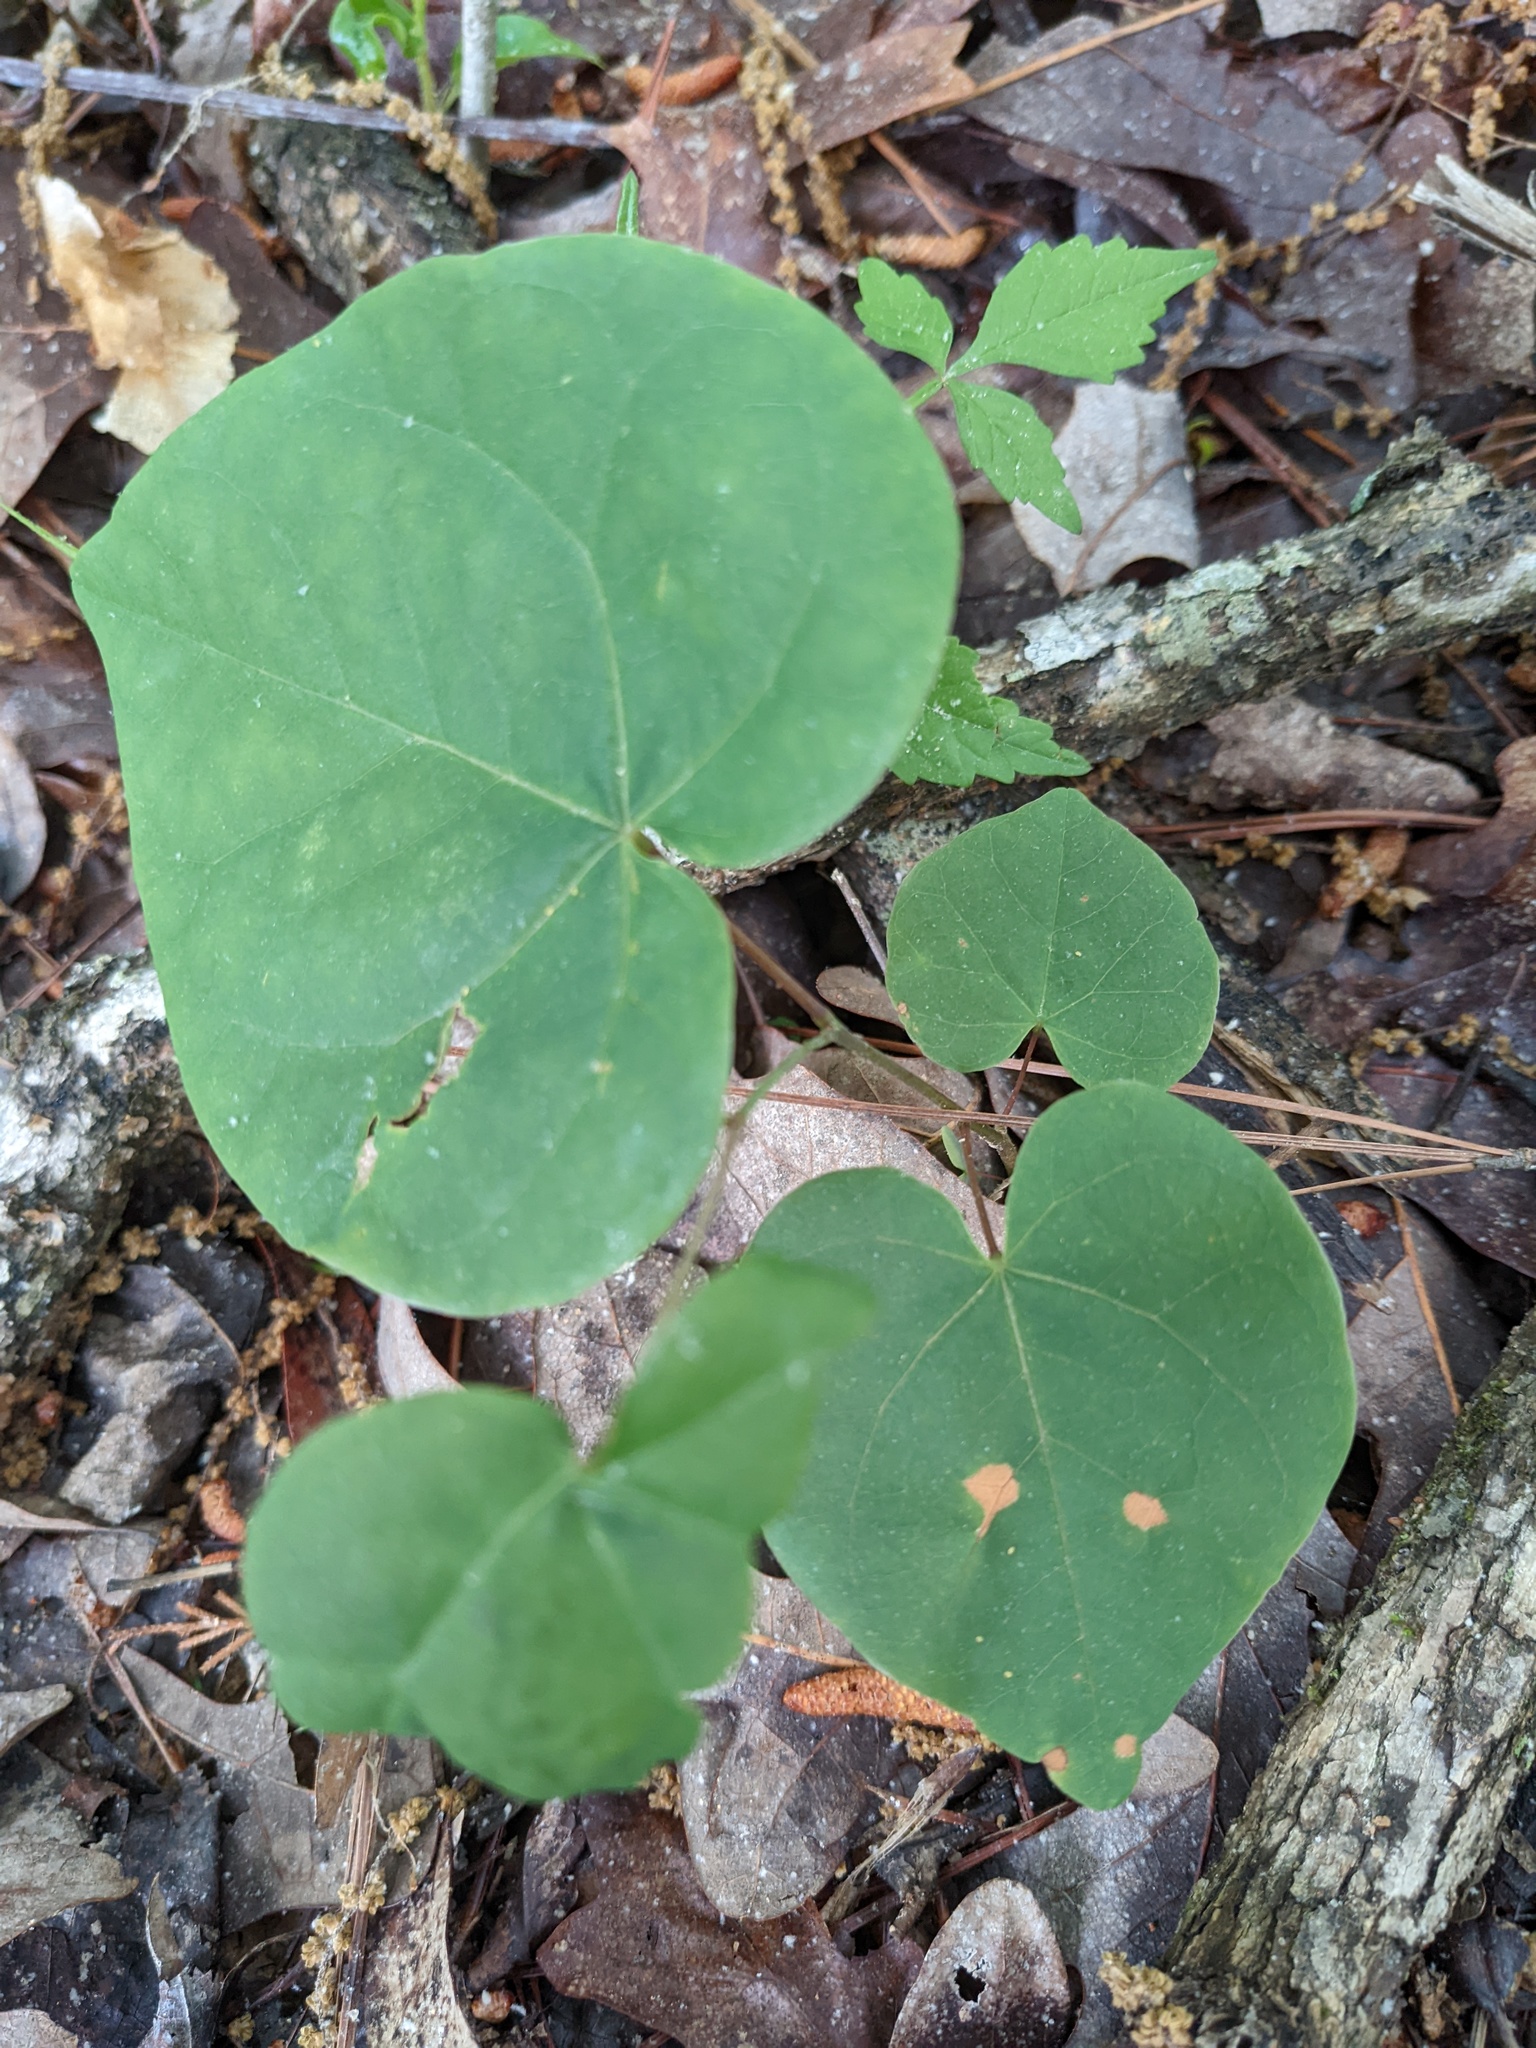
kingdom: Plantae
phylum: Tracheophyta
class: Magnoliopsida
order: Fabales
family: Fabaceae
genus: Cercis
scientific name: Cercis canadensis
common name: Eastern redbud
